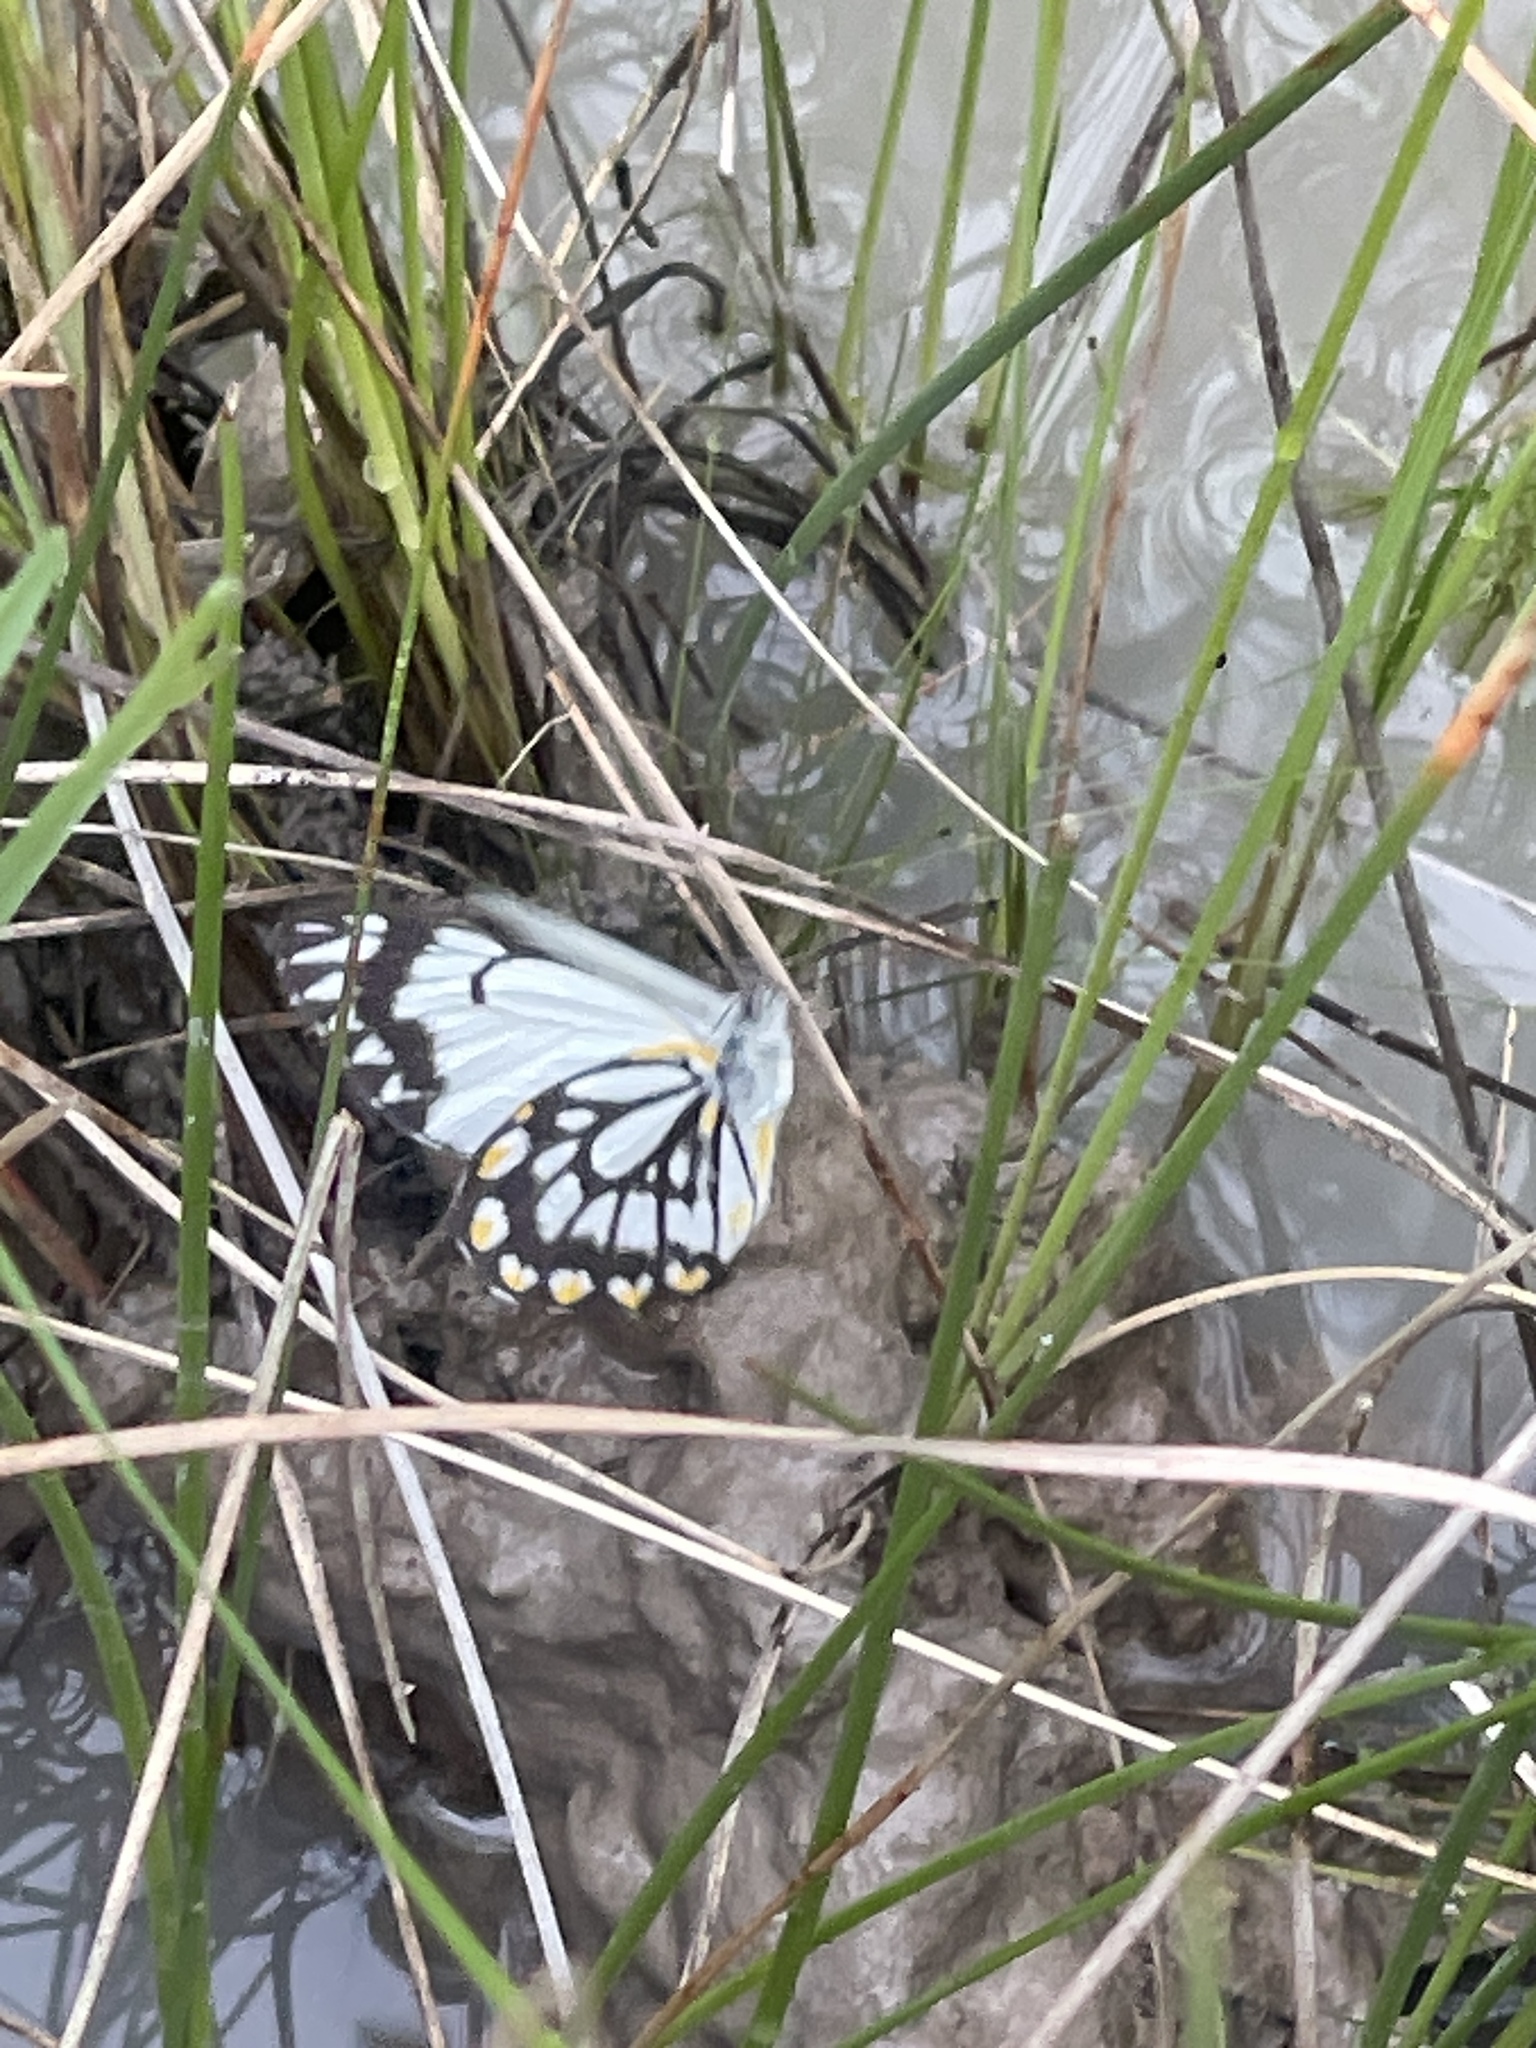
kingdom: Animalia
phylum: Arthropoda
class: Insecta
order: Lepidoptera
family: Pieridae
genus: Belenois
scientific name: Belenois java
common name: Caper white
